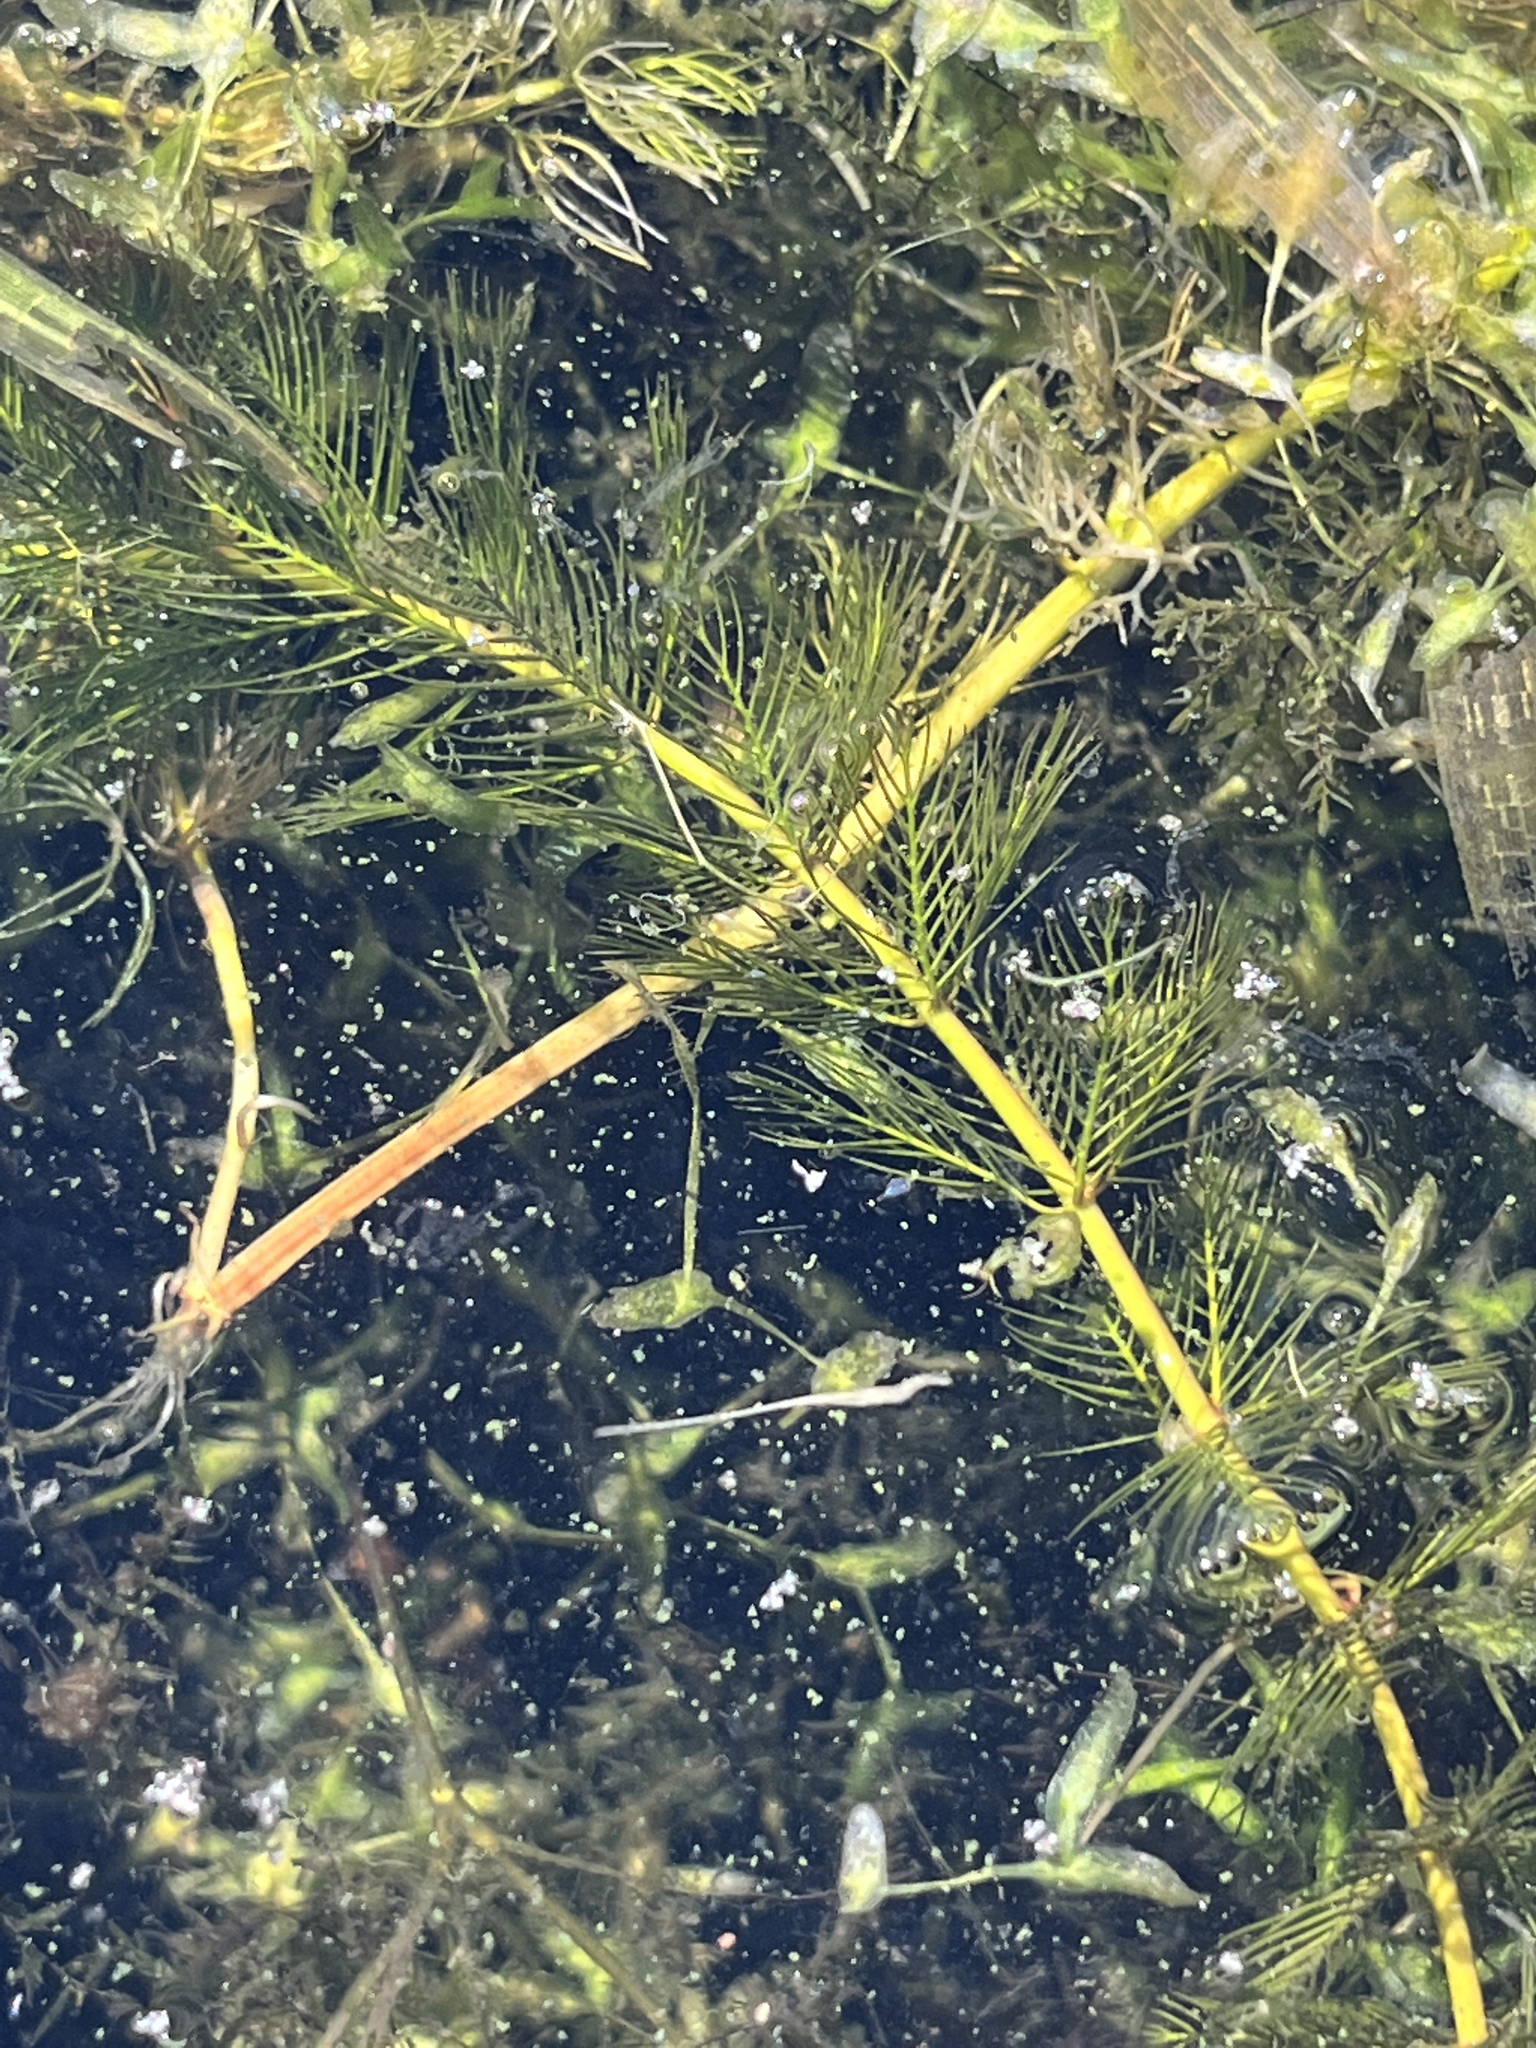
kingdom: Plantae
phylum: Tracheophyta
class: Magnoliopsida
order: Saxifragales
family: Haloragaceae
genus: Myriophyllum
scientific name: Myriophyllum spicatum
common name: Spiked water-milfoil
